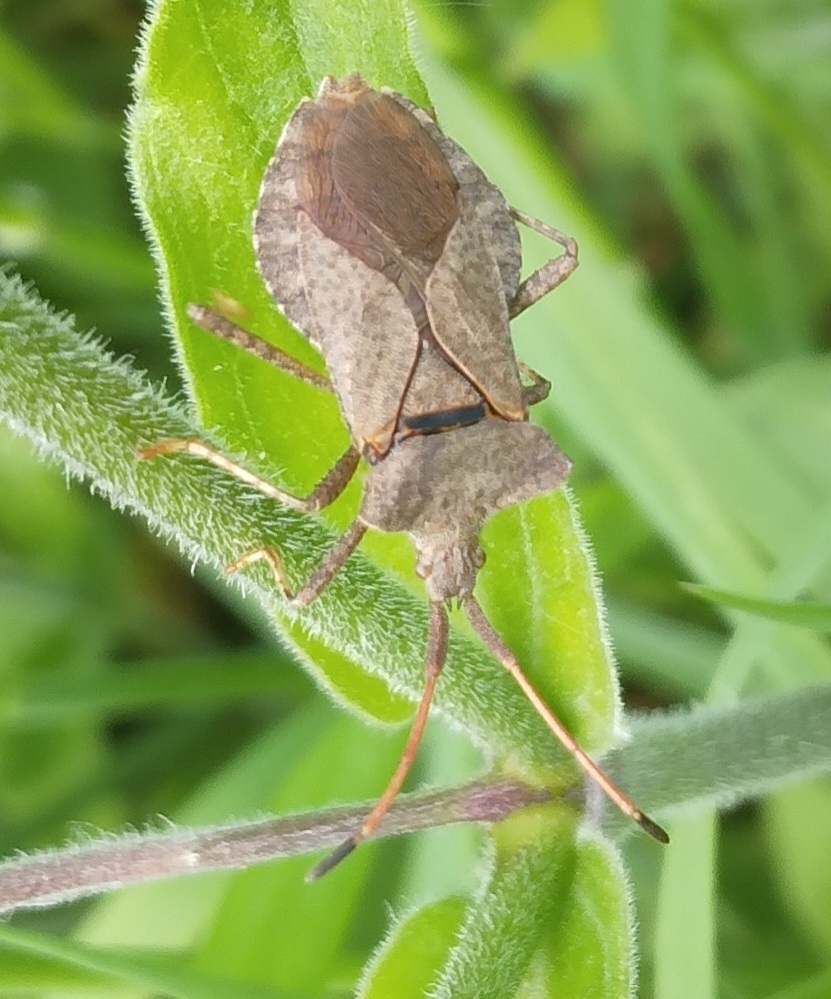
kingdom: Animalia
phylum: Arthropoda
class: Insecta
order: Hemiptera
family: Coreidae
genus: Coreus
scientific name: Coreus marginatus
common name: Dock bug
